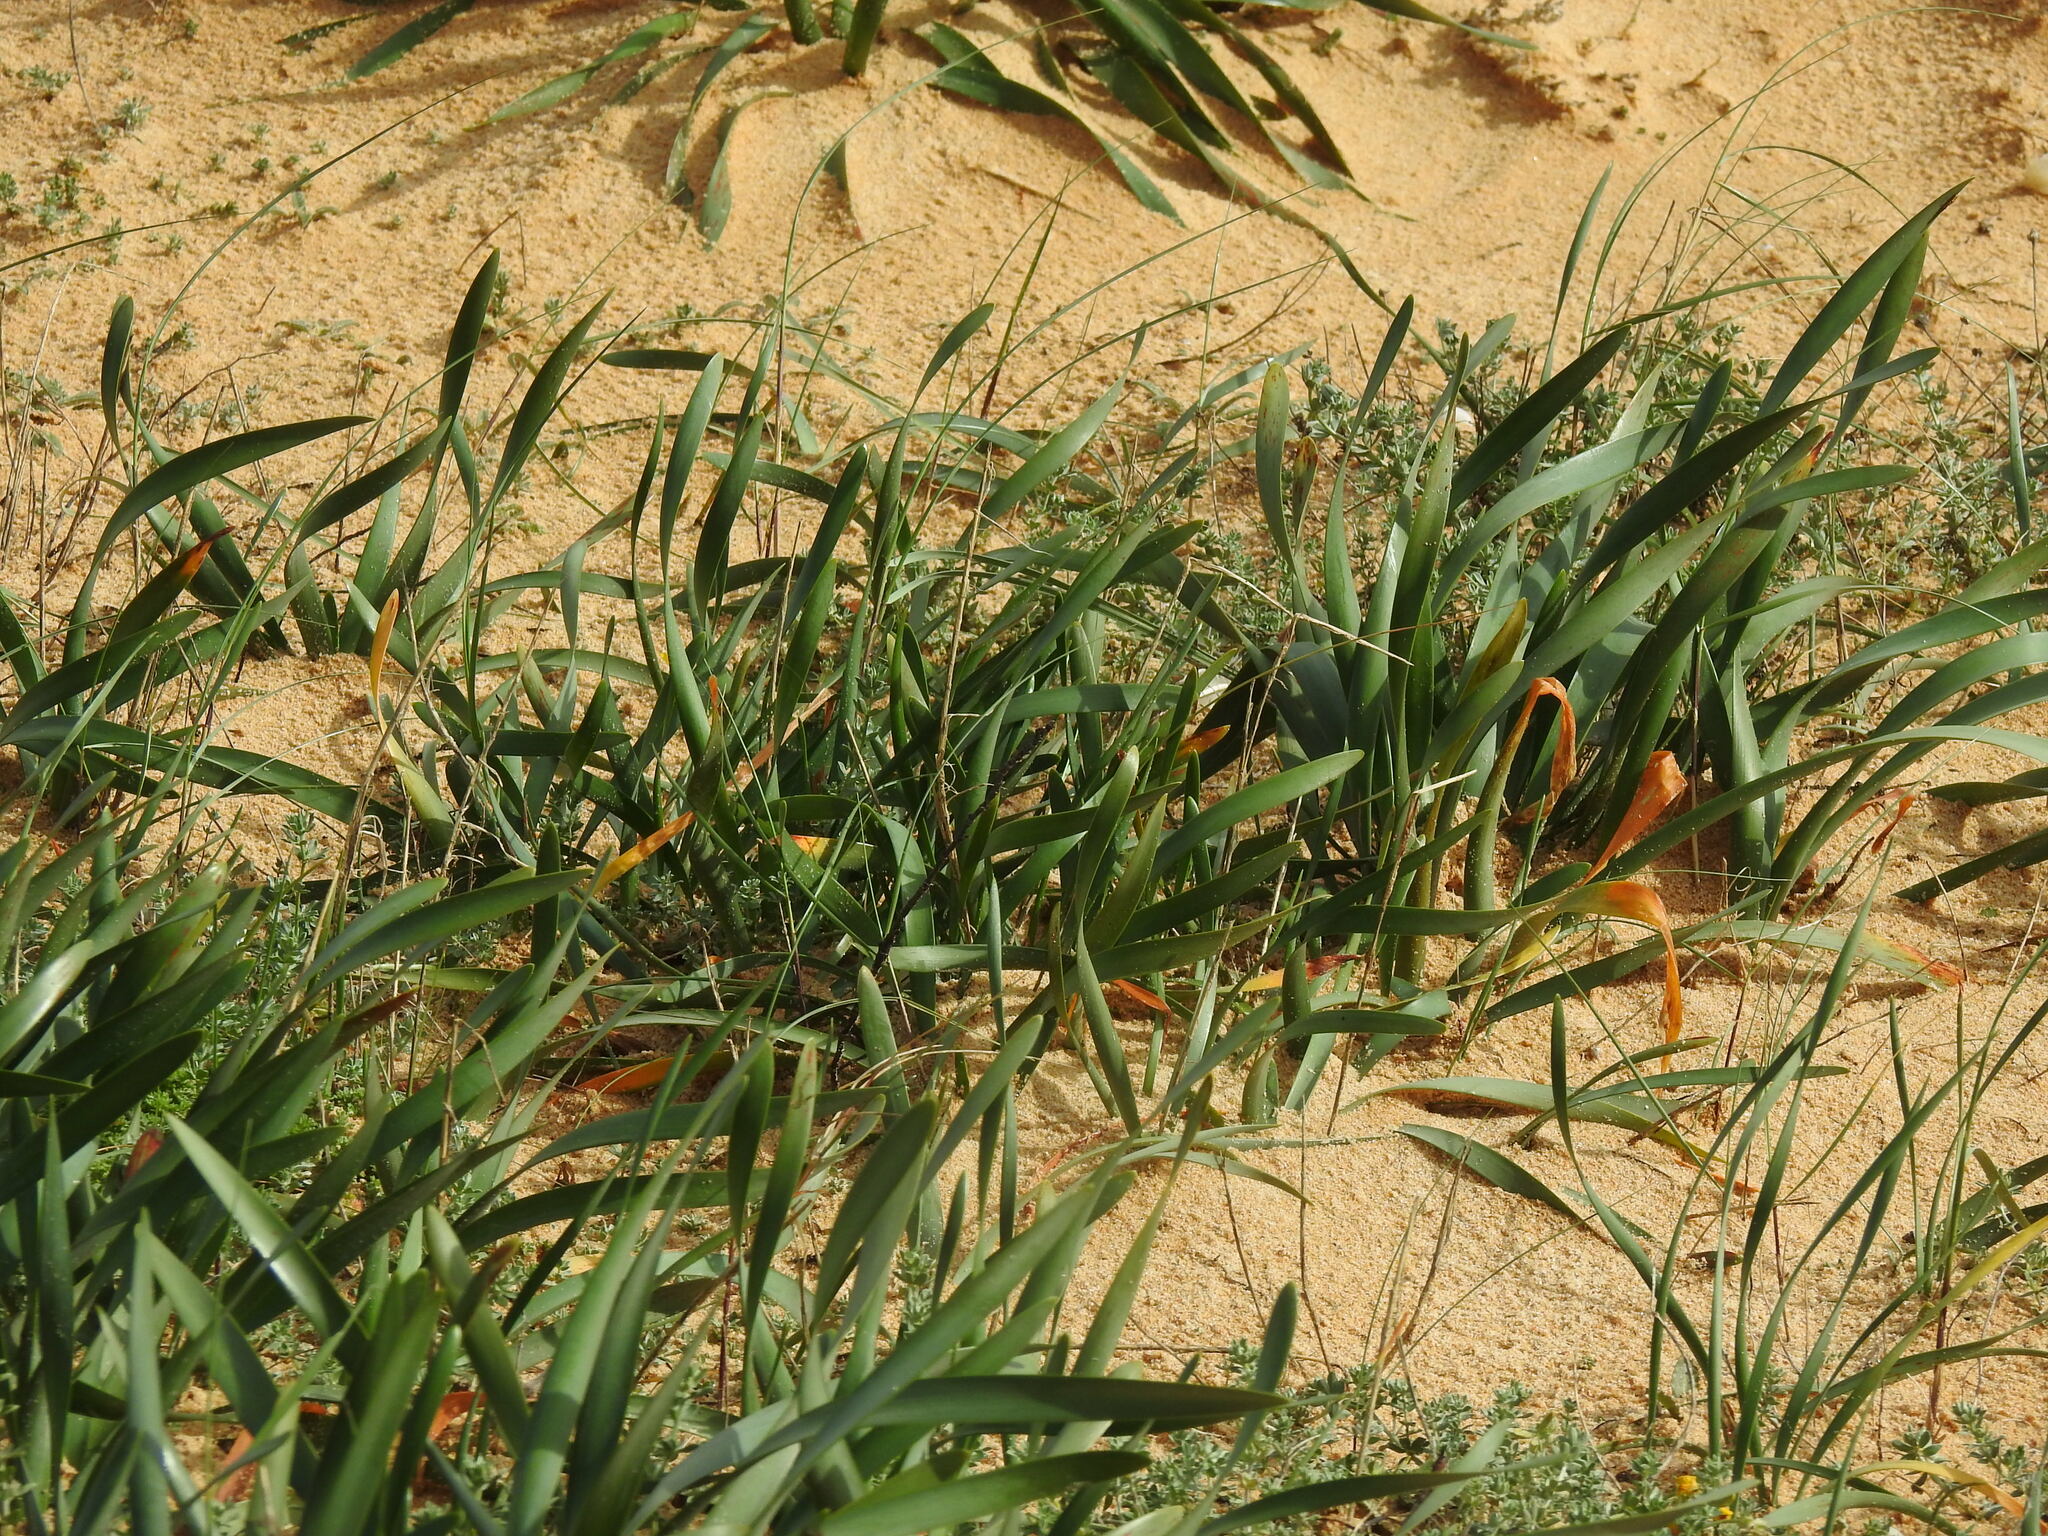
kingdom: Plantae
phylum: Tracheophyta
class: Liliopsida
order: Asparagales
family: Amaryllidaceae
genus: Pancratium
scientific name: Pancratium maritimum
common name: Sea-daffodil
